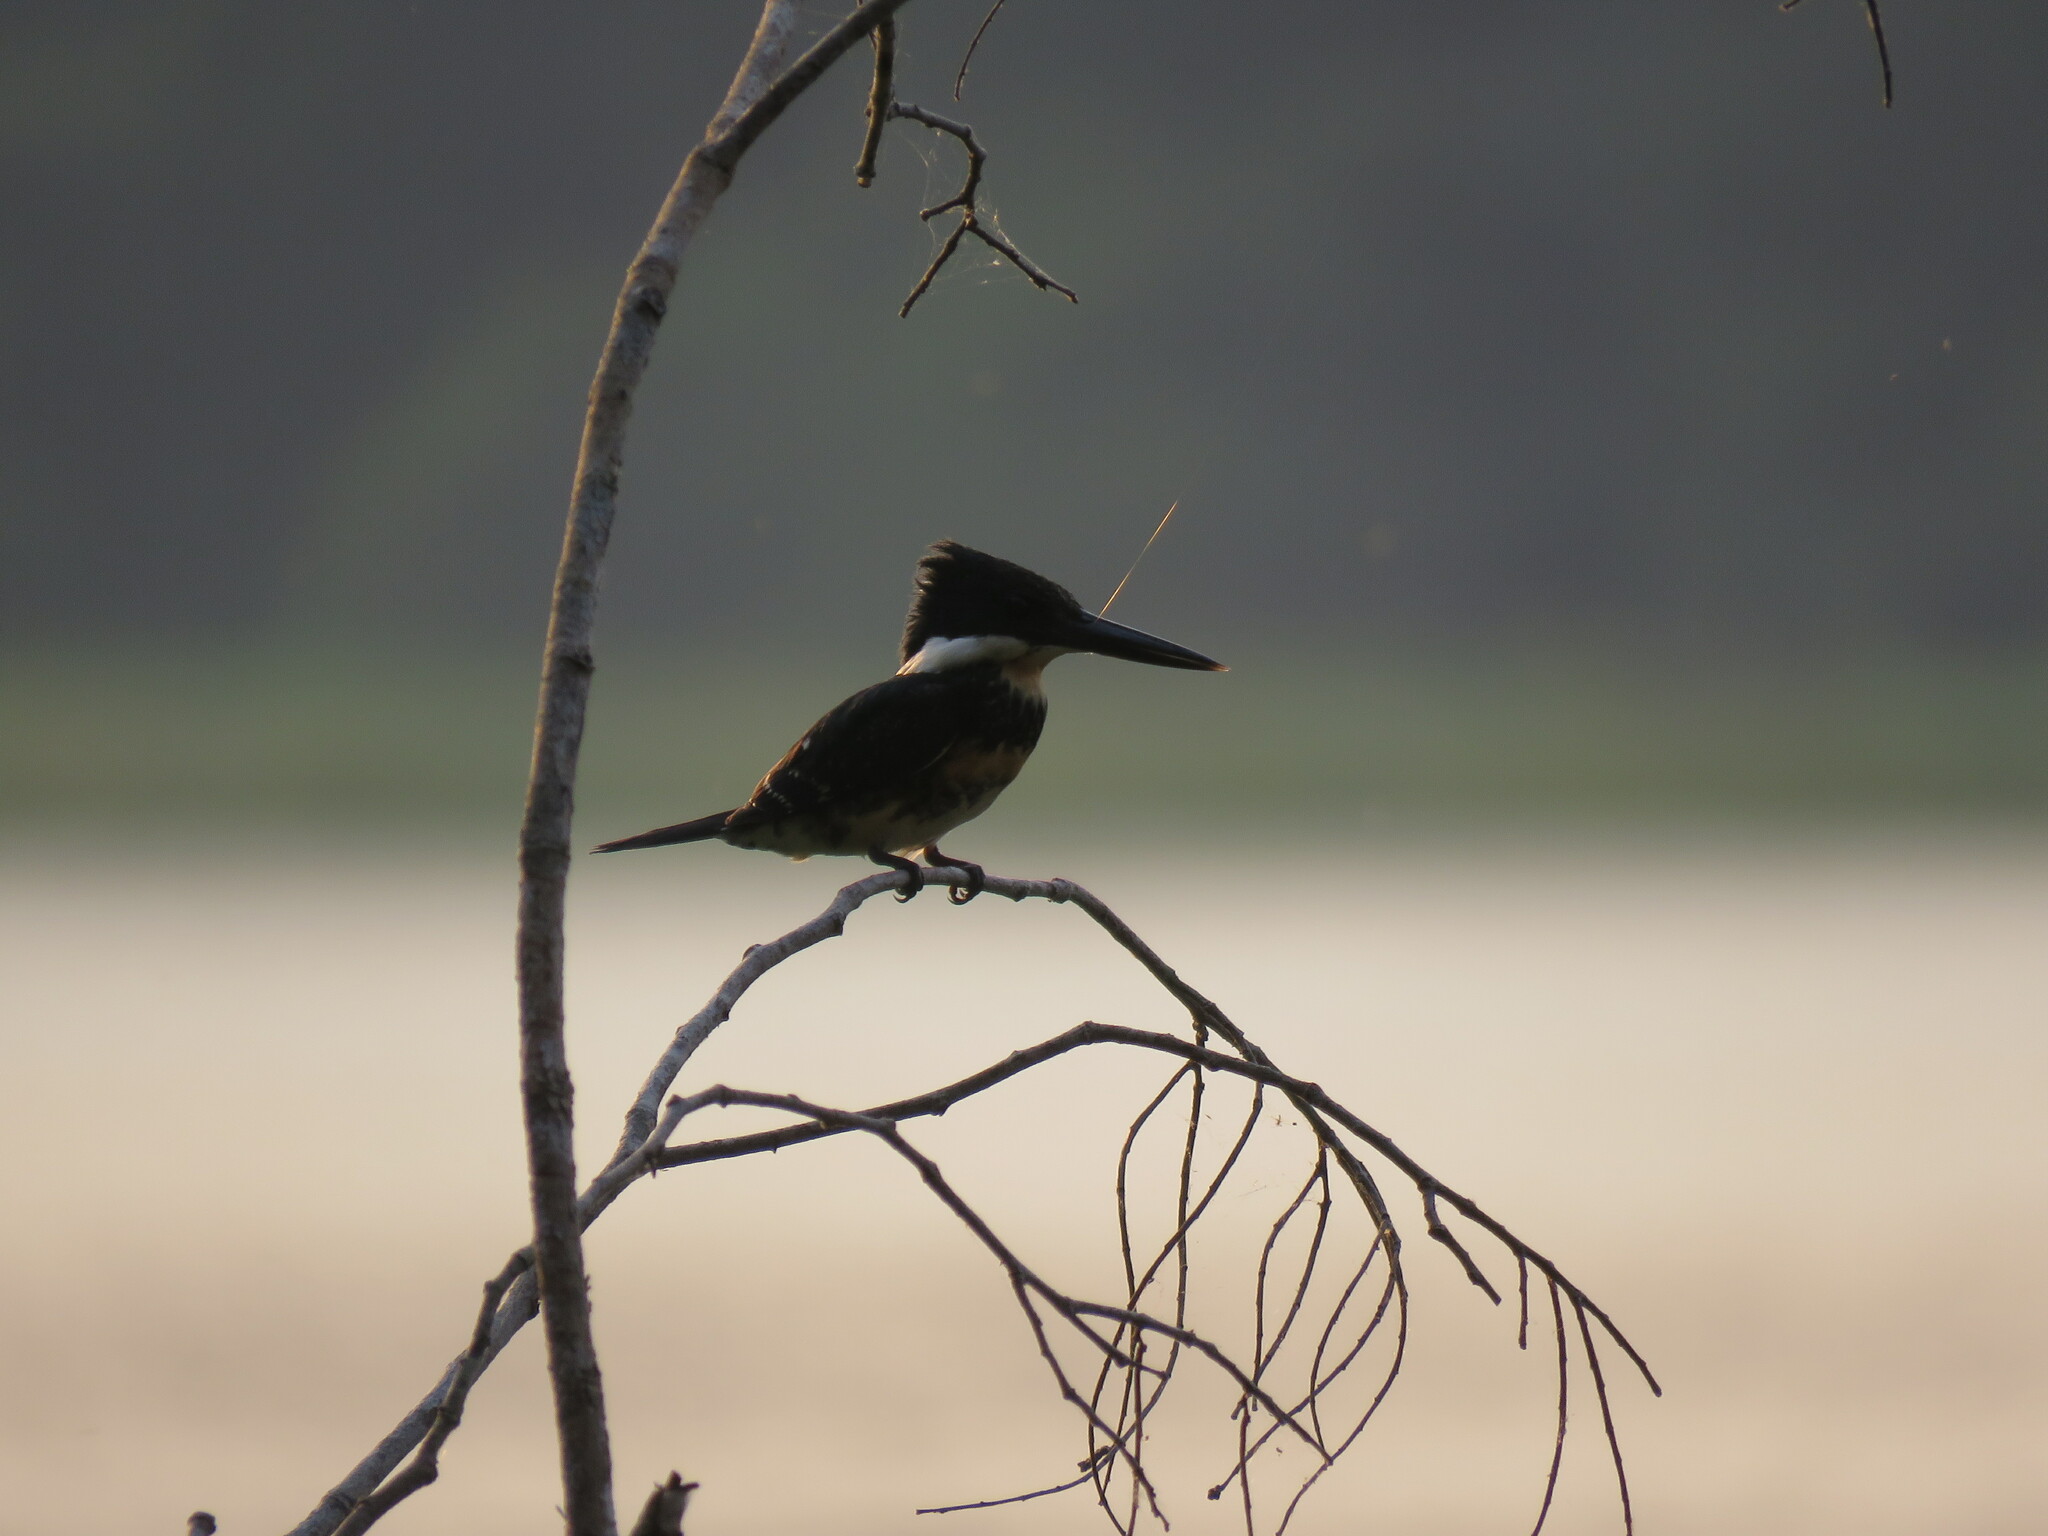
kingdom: Animalia
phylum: Chordata
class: Aves
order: Coraciiformes
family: Alcedinidae
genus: Chloroceryle
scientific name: Chloroceryle americana
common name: Green kingfisher
